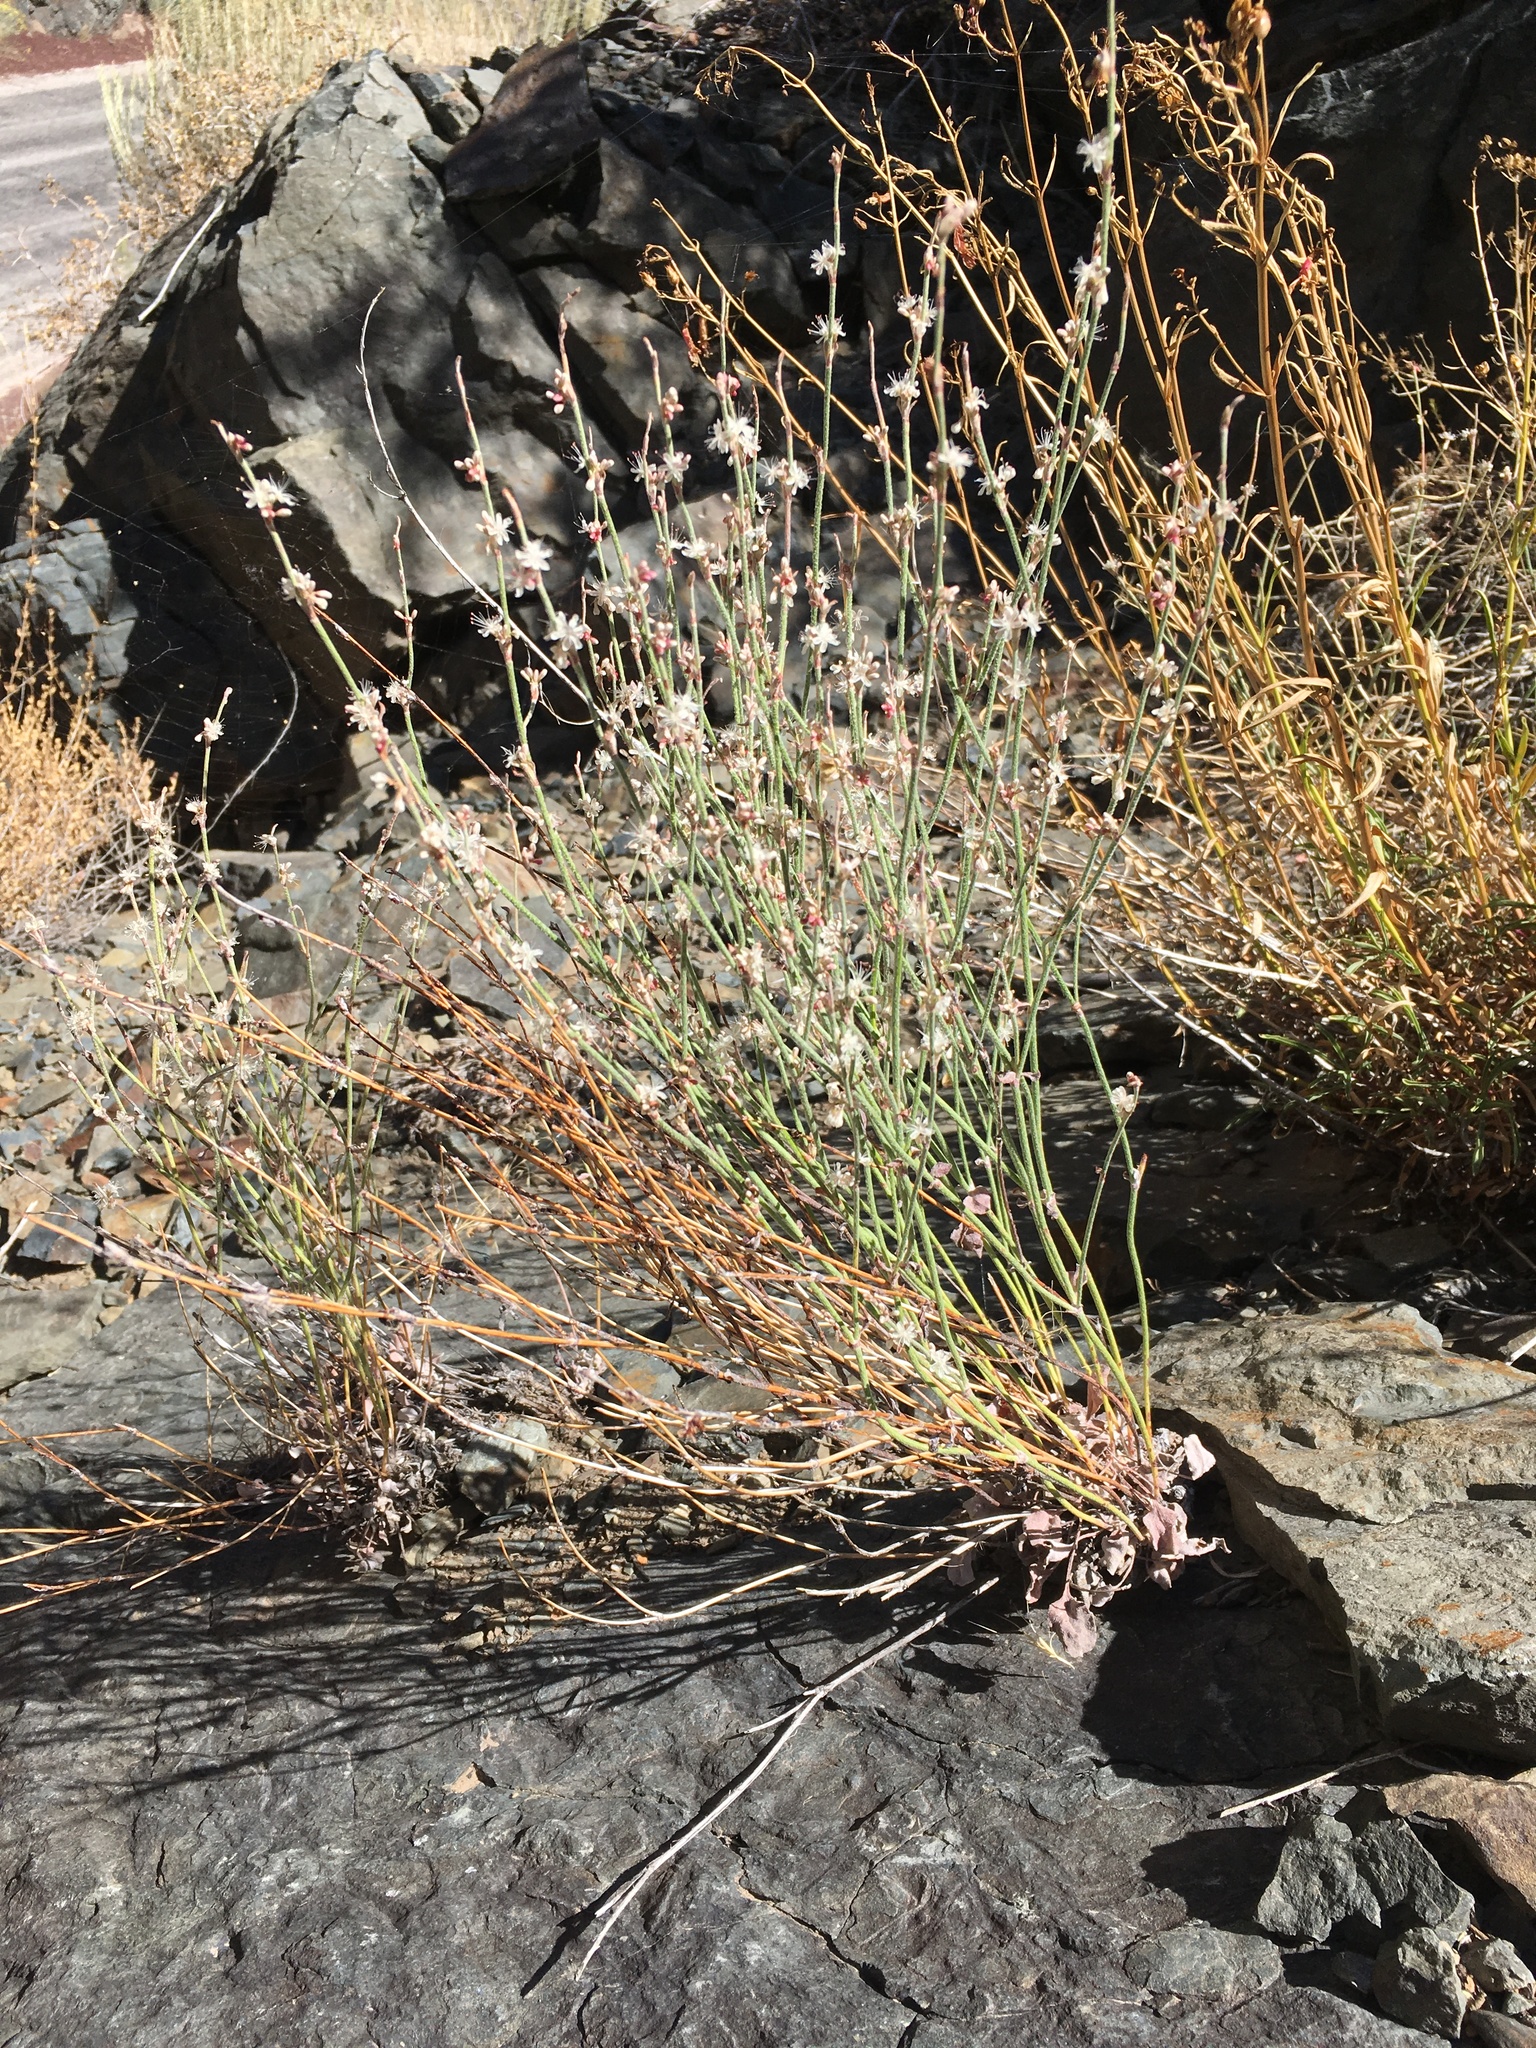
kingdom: Plantae
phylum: Tracheophyta
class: Magnoliopsida
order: Caryophyllales
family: Polygonaceae
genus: Eriogonum
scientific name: Eriogonum panamintense
